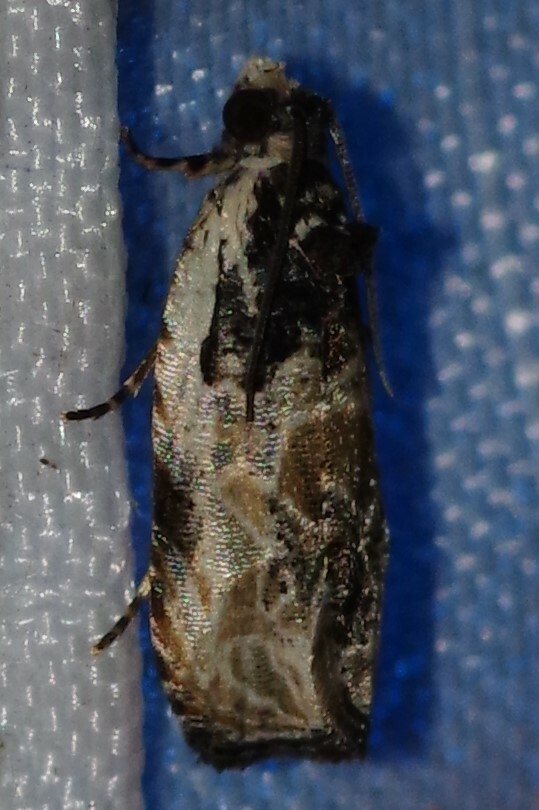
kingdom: Animalia
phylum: Arthropoda
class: Insecta
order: Lepidoptera
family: Tortricidae
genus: Olethreutes
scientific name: Olethreutes griseoalbana
